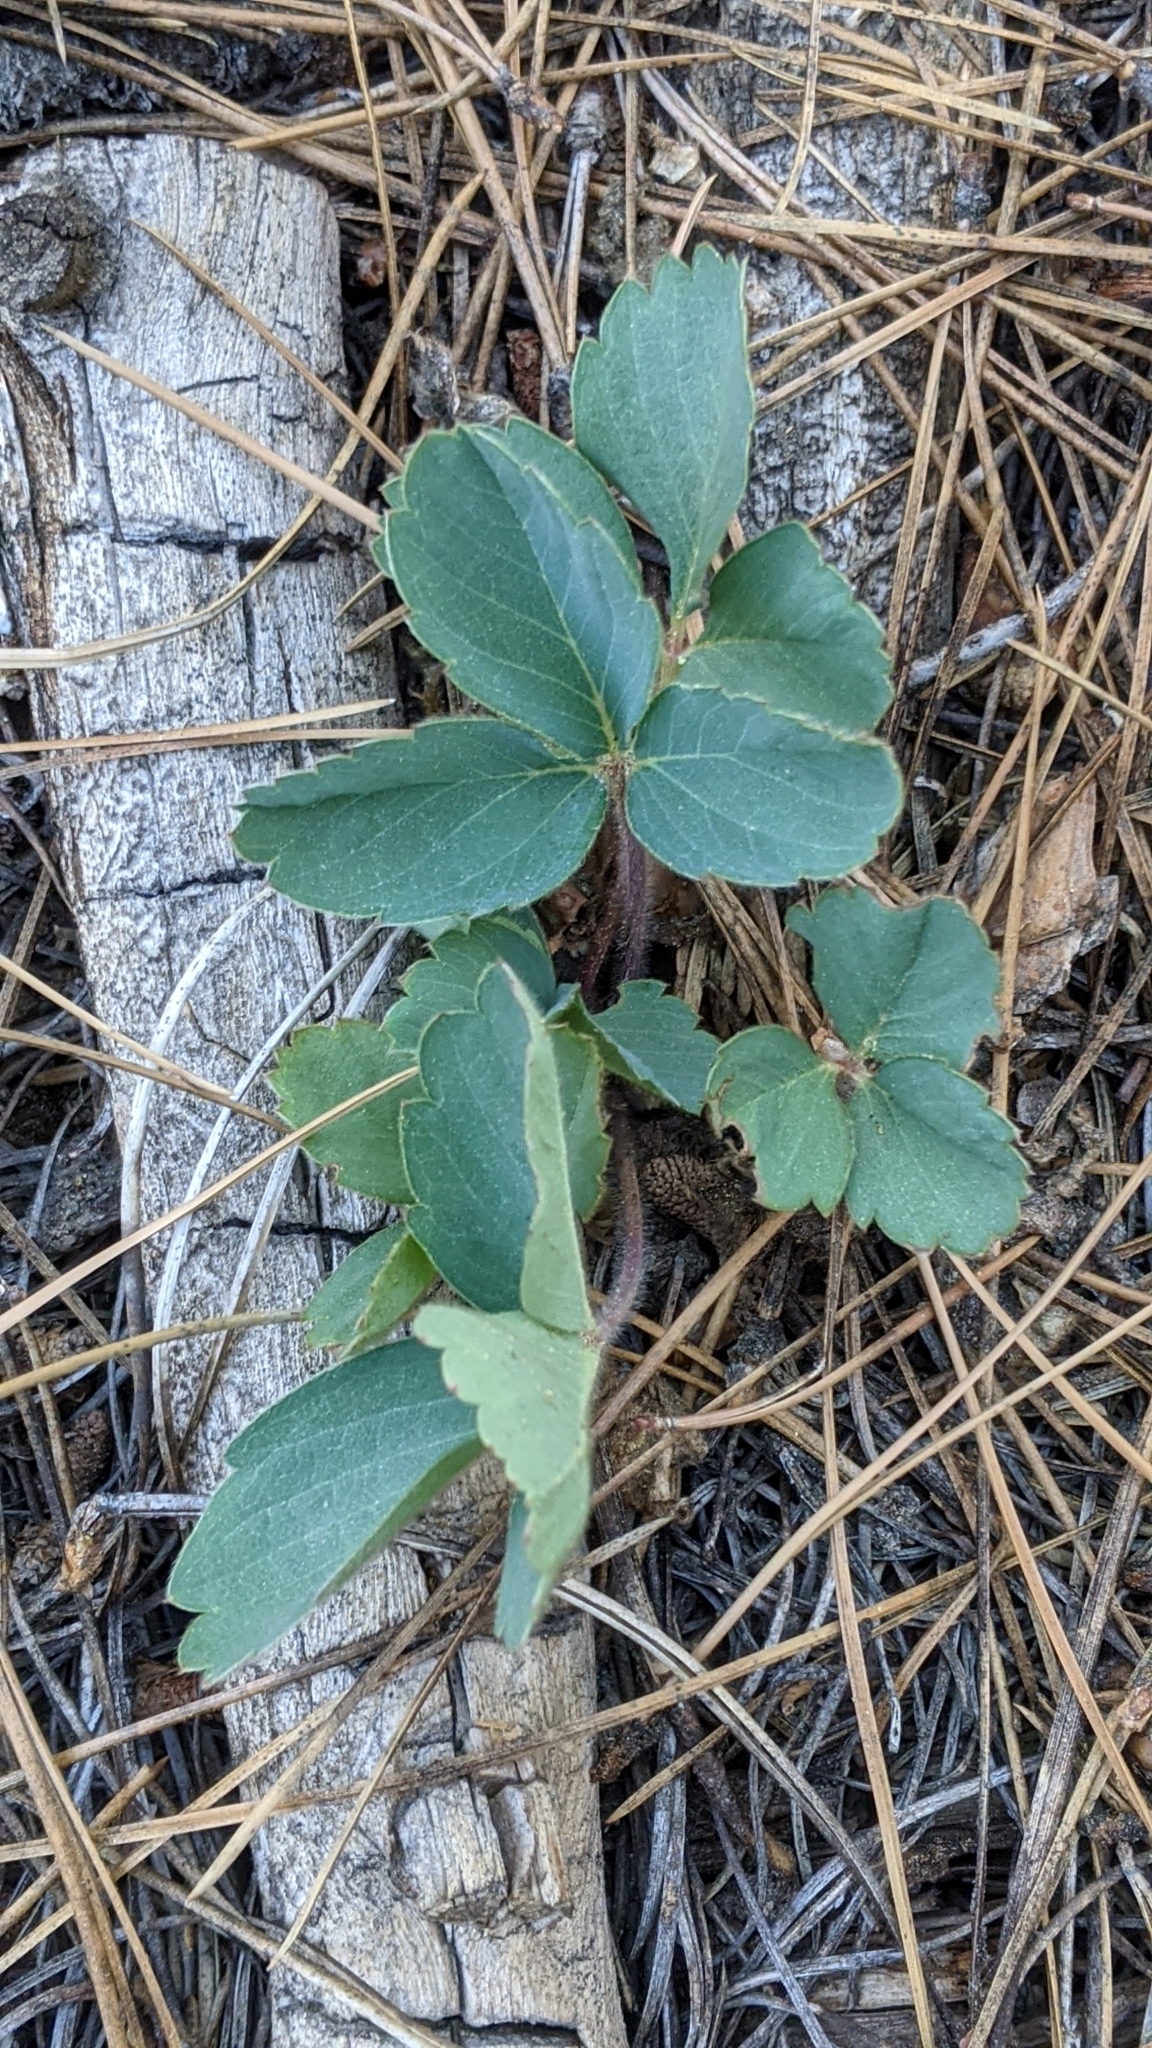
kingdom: Plantae
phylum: Tracheophyta
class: Magnoliopsida
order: Rosales
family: Rosaceae
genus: Fragaria
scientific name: Fragaria virginiana
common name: Thickleaved wild strawberry
